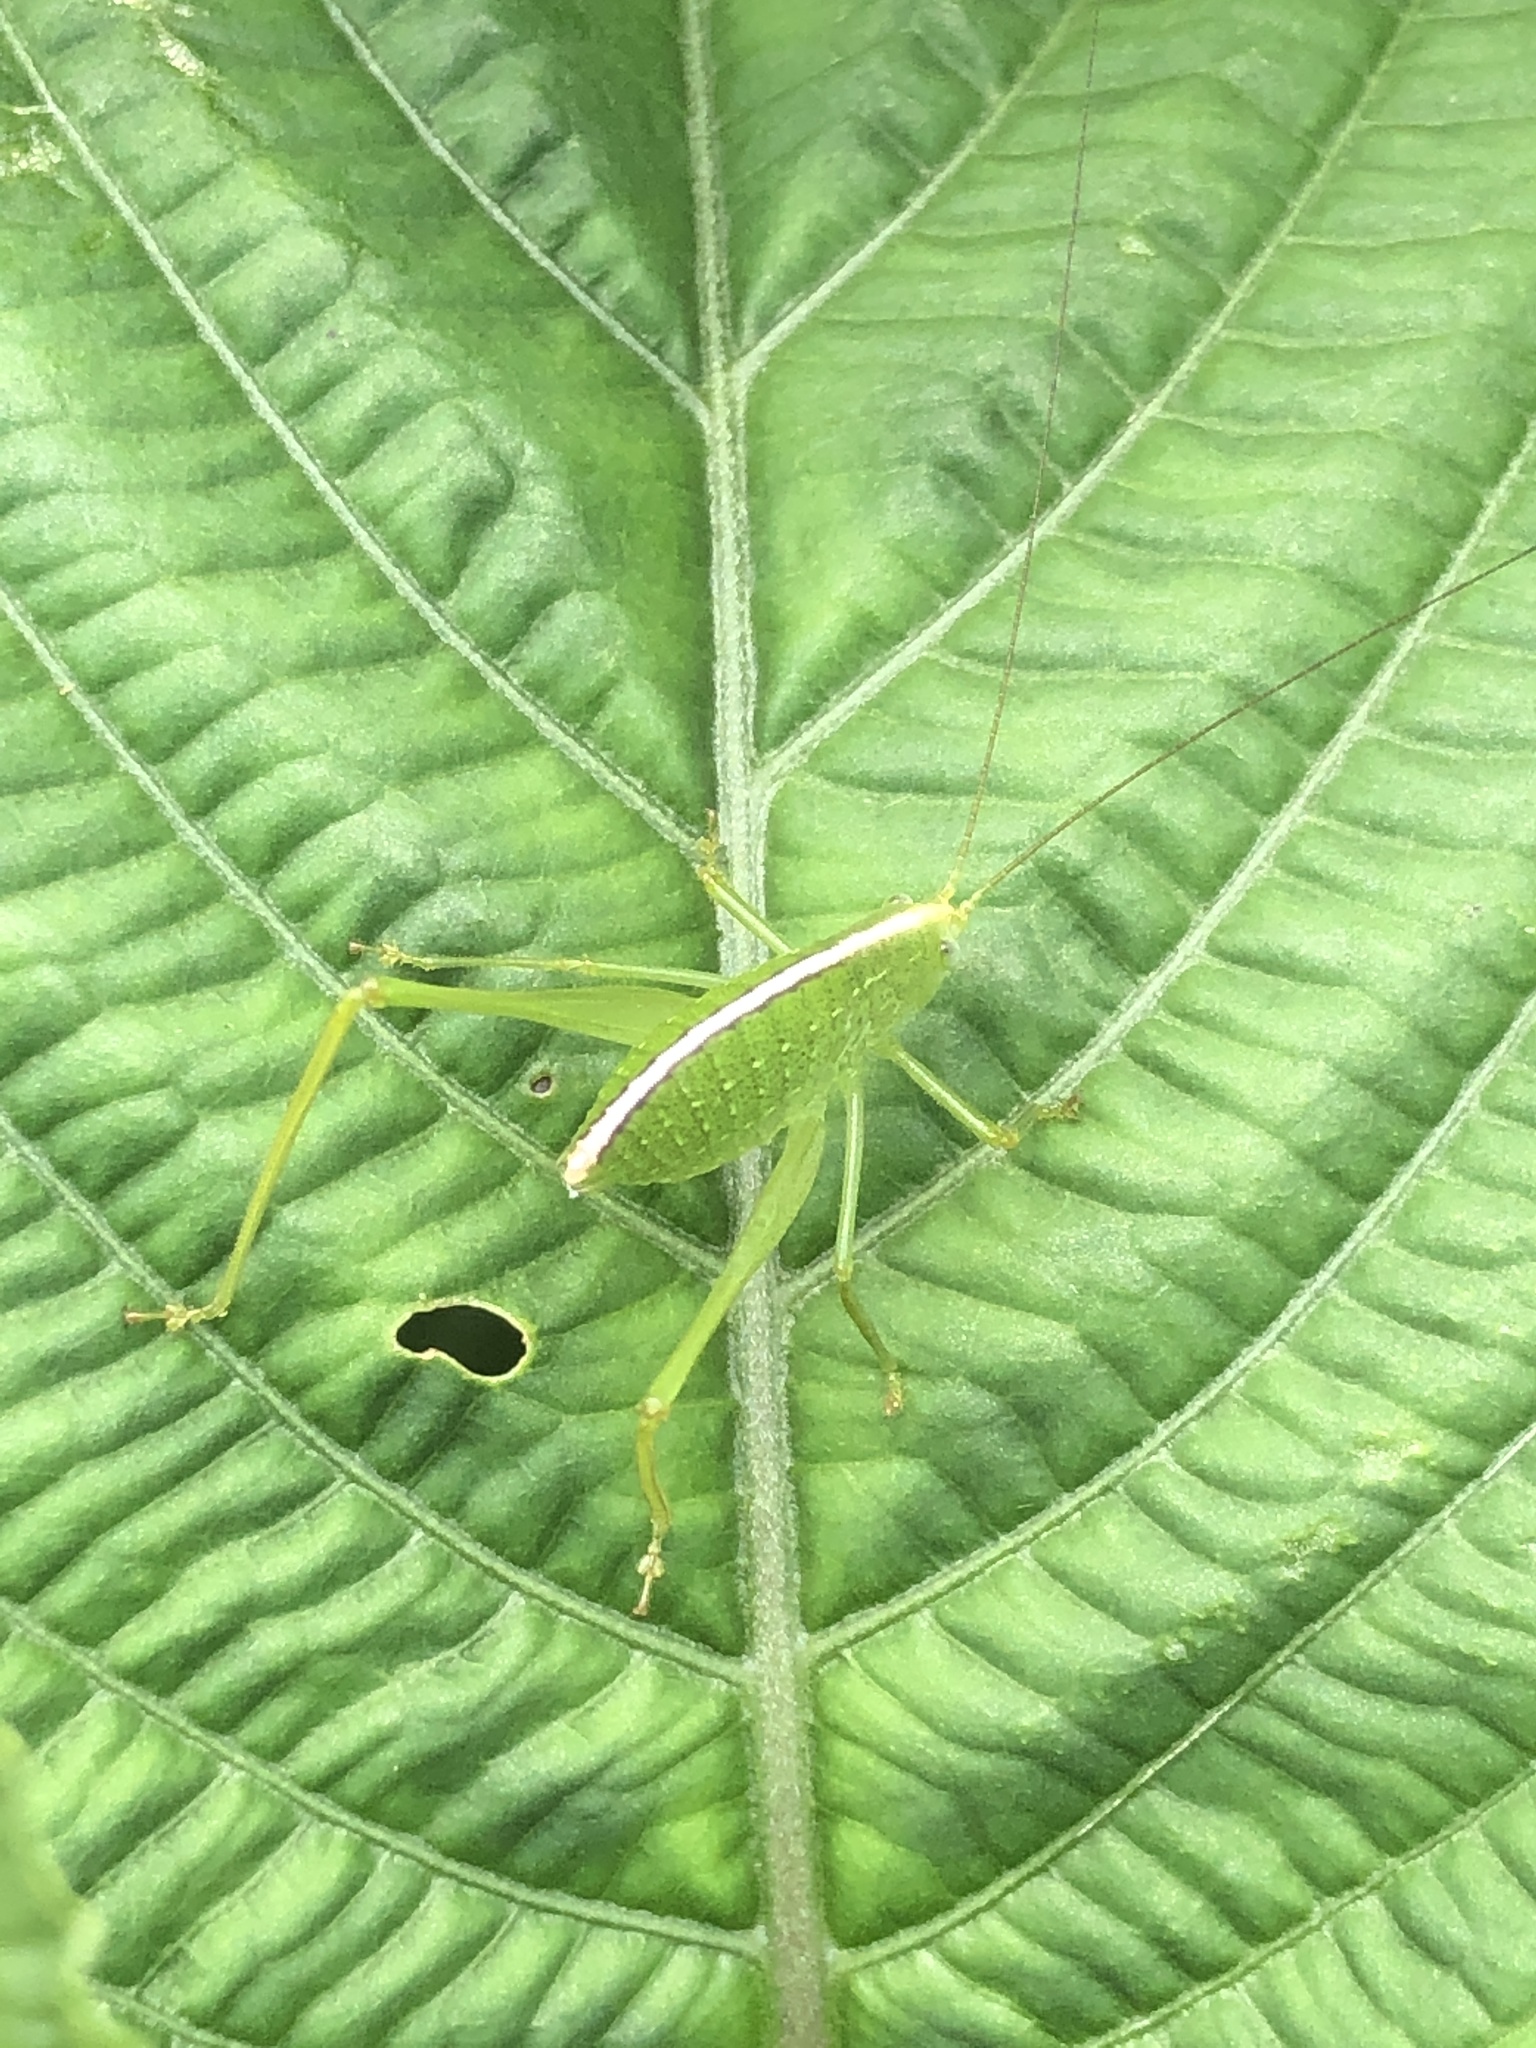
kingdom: Animalia
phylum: Arthropoda
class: Insecta
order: Orthoptera
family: Tettigoniidae
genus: Phaulula
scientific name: Phaulula daitoensis
